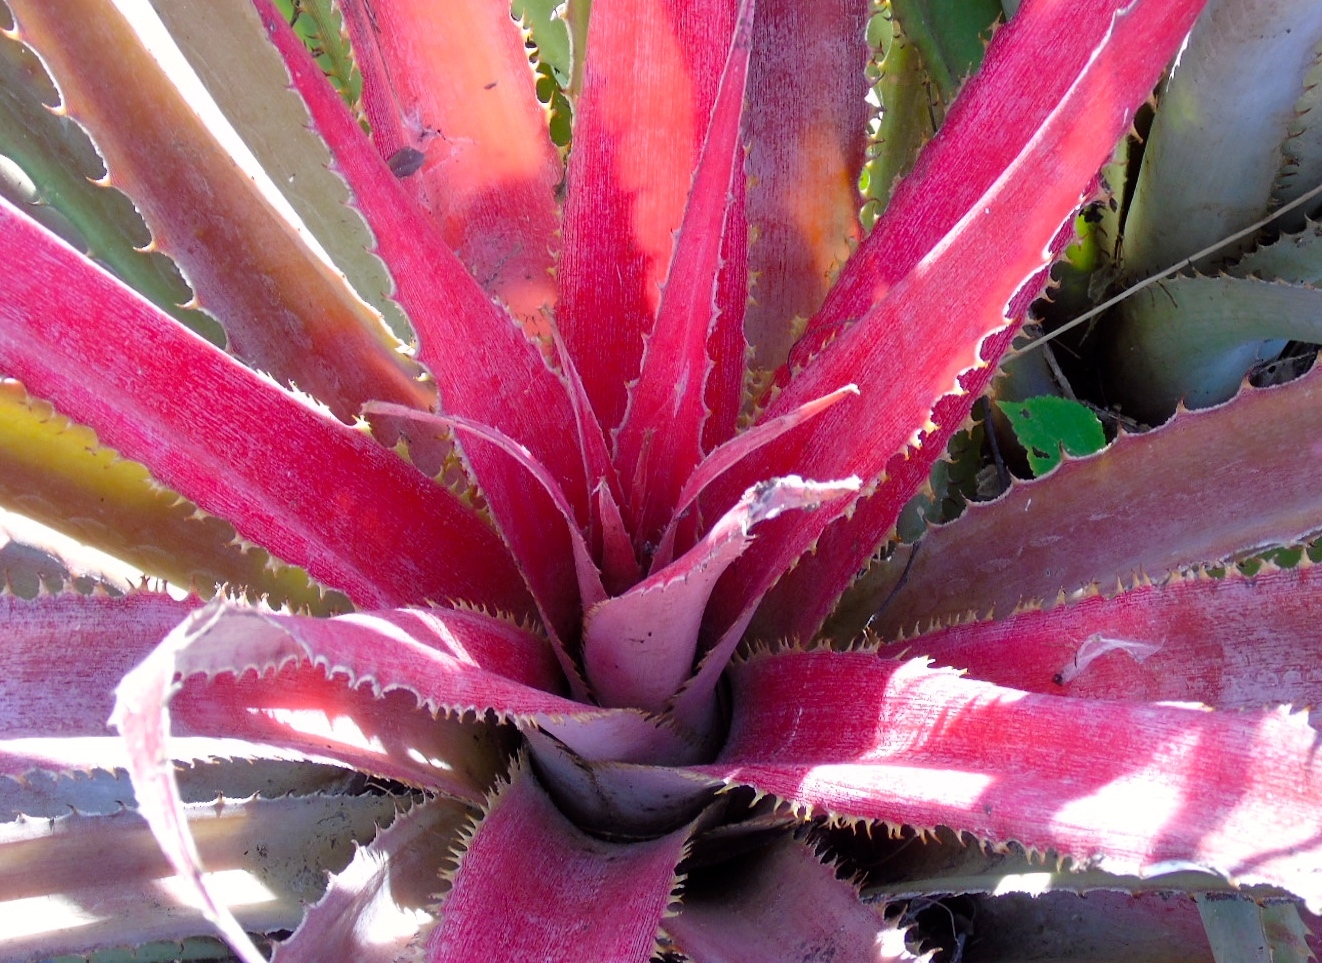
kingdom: Plantae
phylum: Tracheophyta
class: Liliopsida
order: Poales
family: Bromeliaceae
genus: Bromelia
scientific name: Bromelia hemisphaerica
